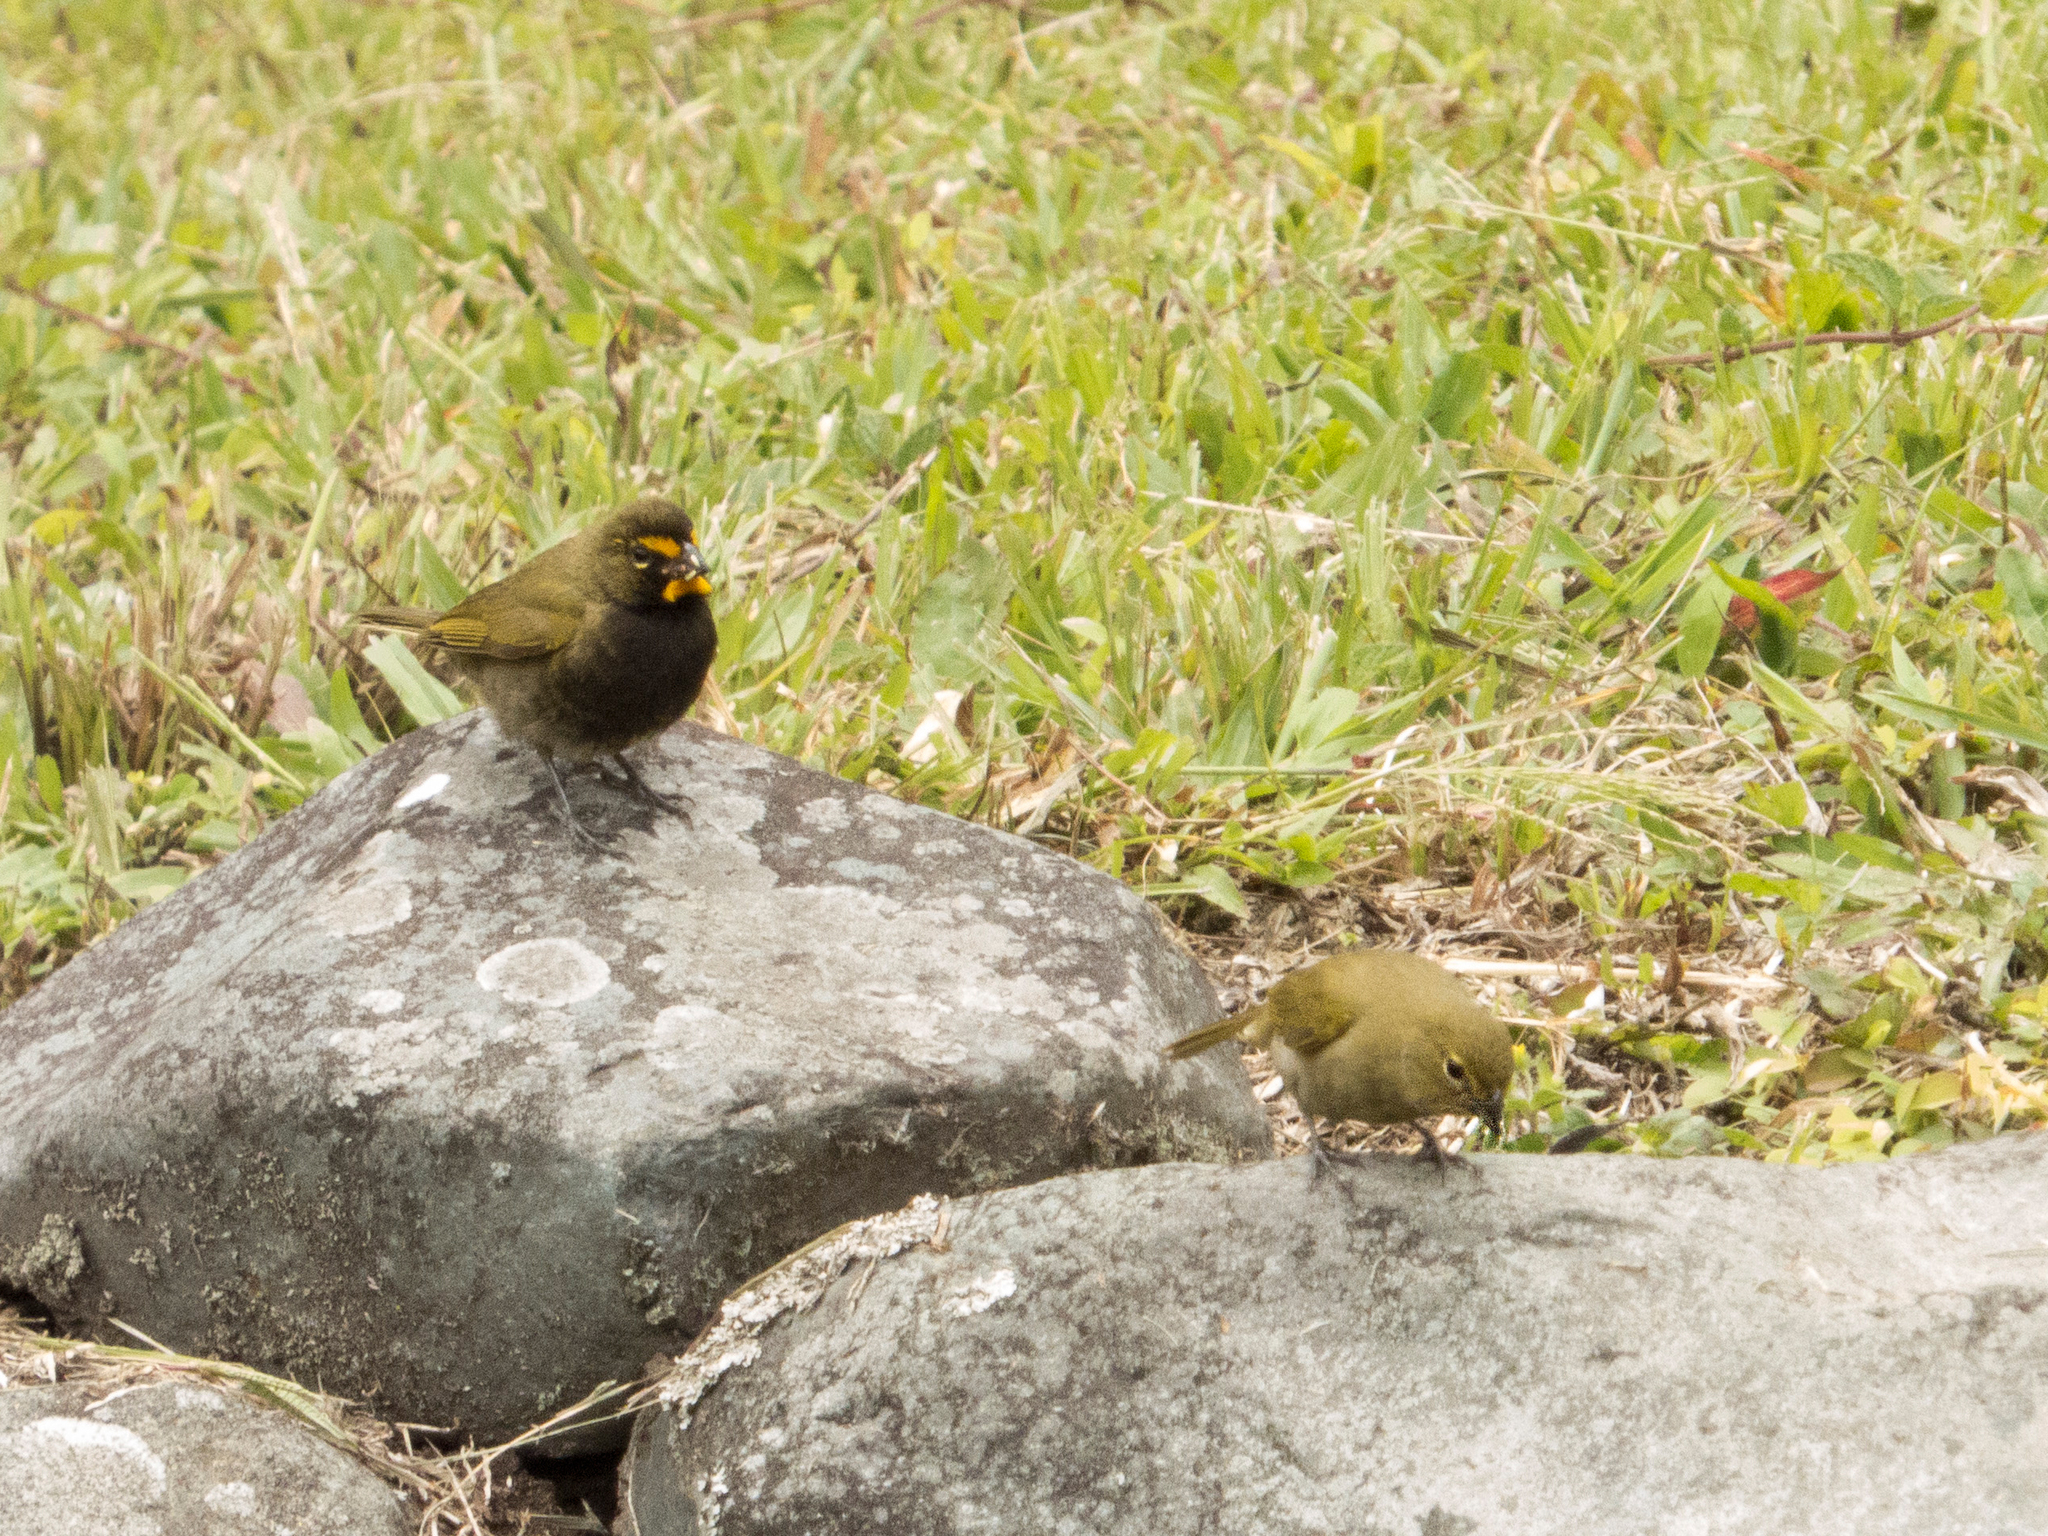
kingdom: Animalia
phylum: Chordata
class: Aves
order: Passeriformes
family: Thraupidae
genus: Tiaris
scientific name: Tiaris olivaceus
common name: Yellow-faced grassquit
